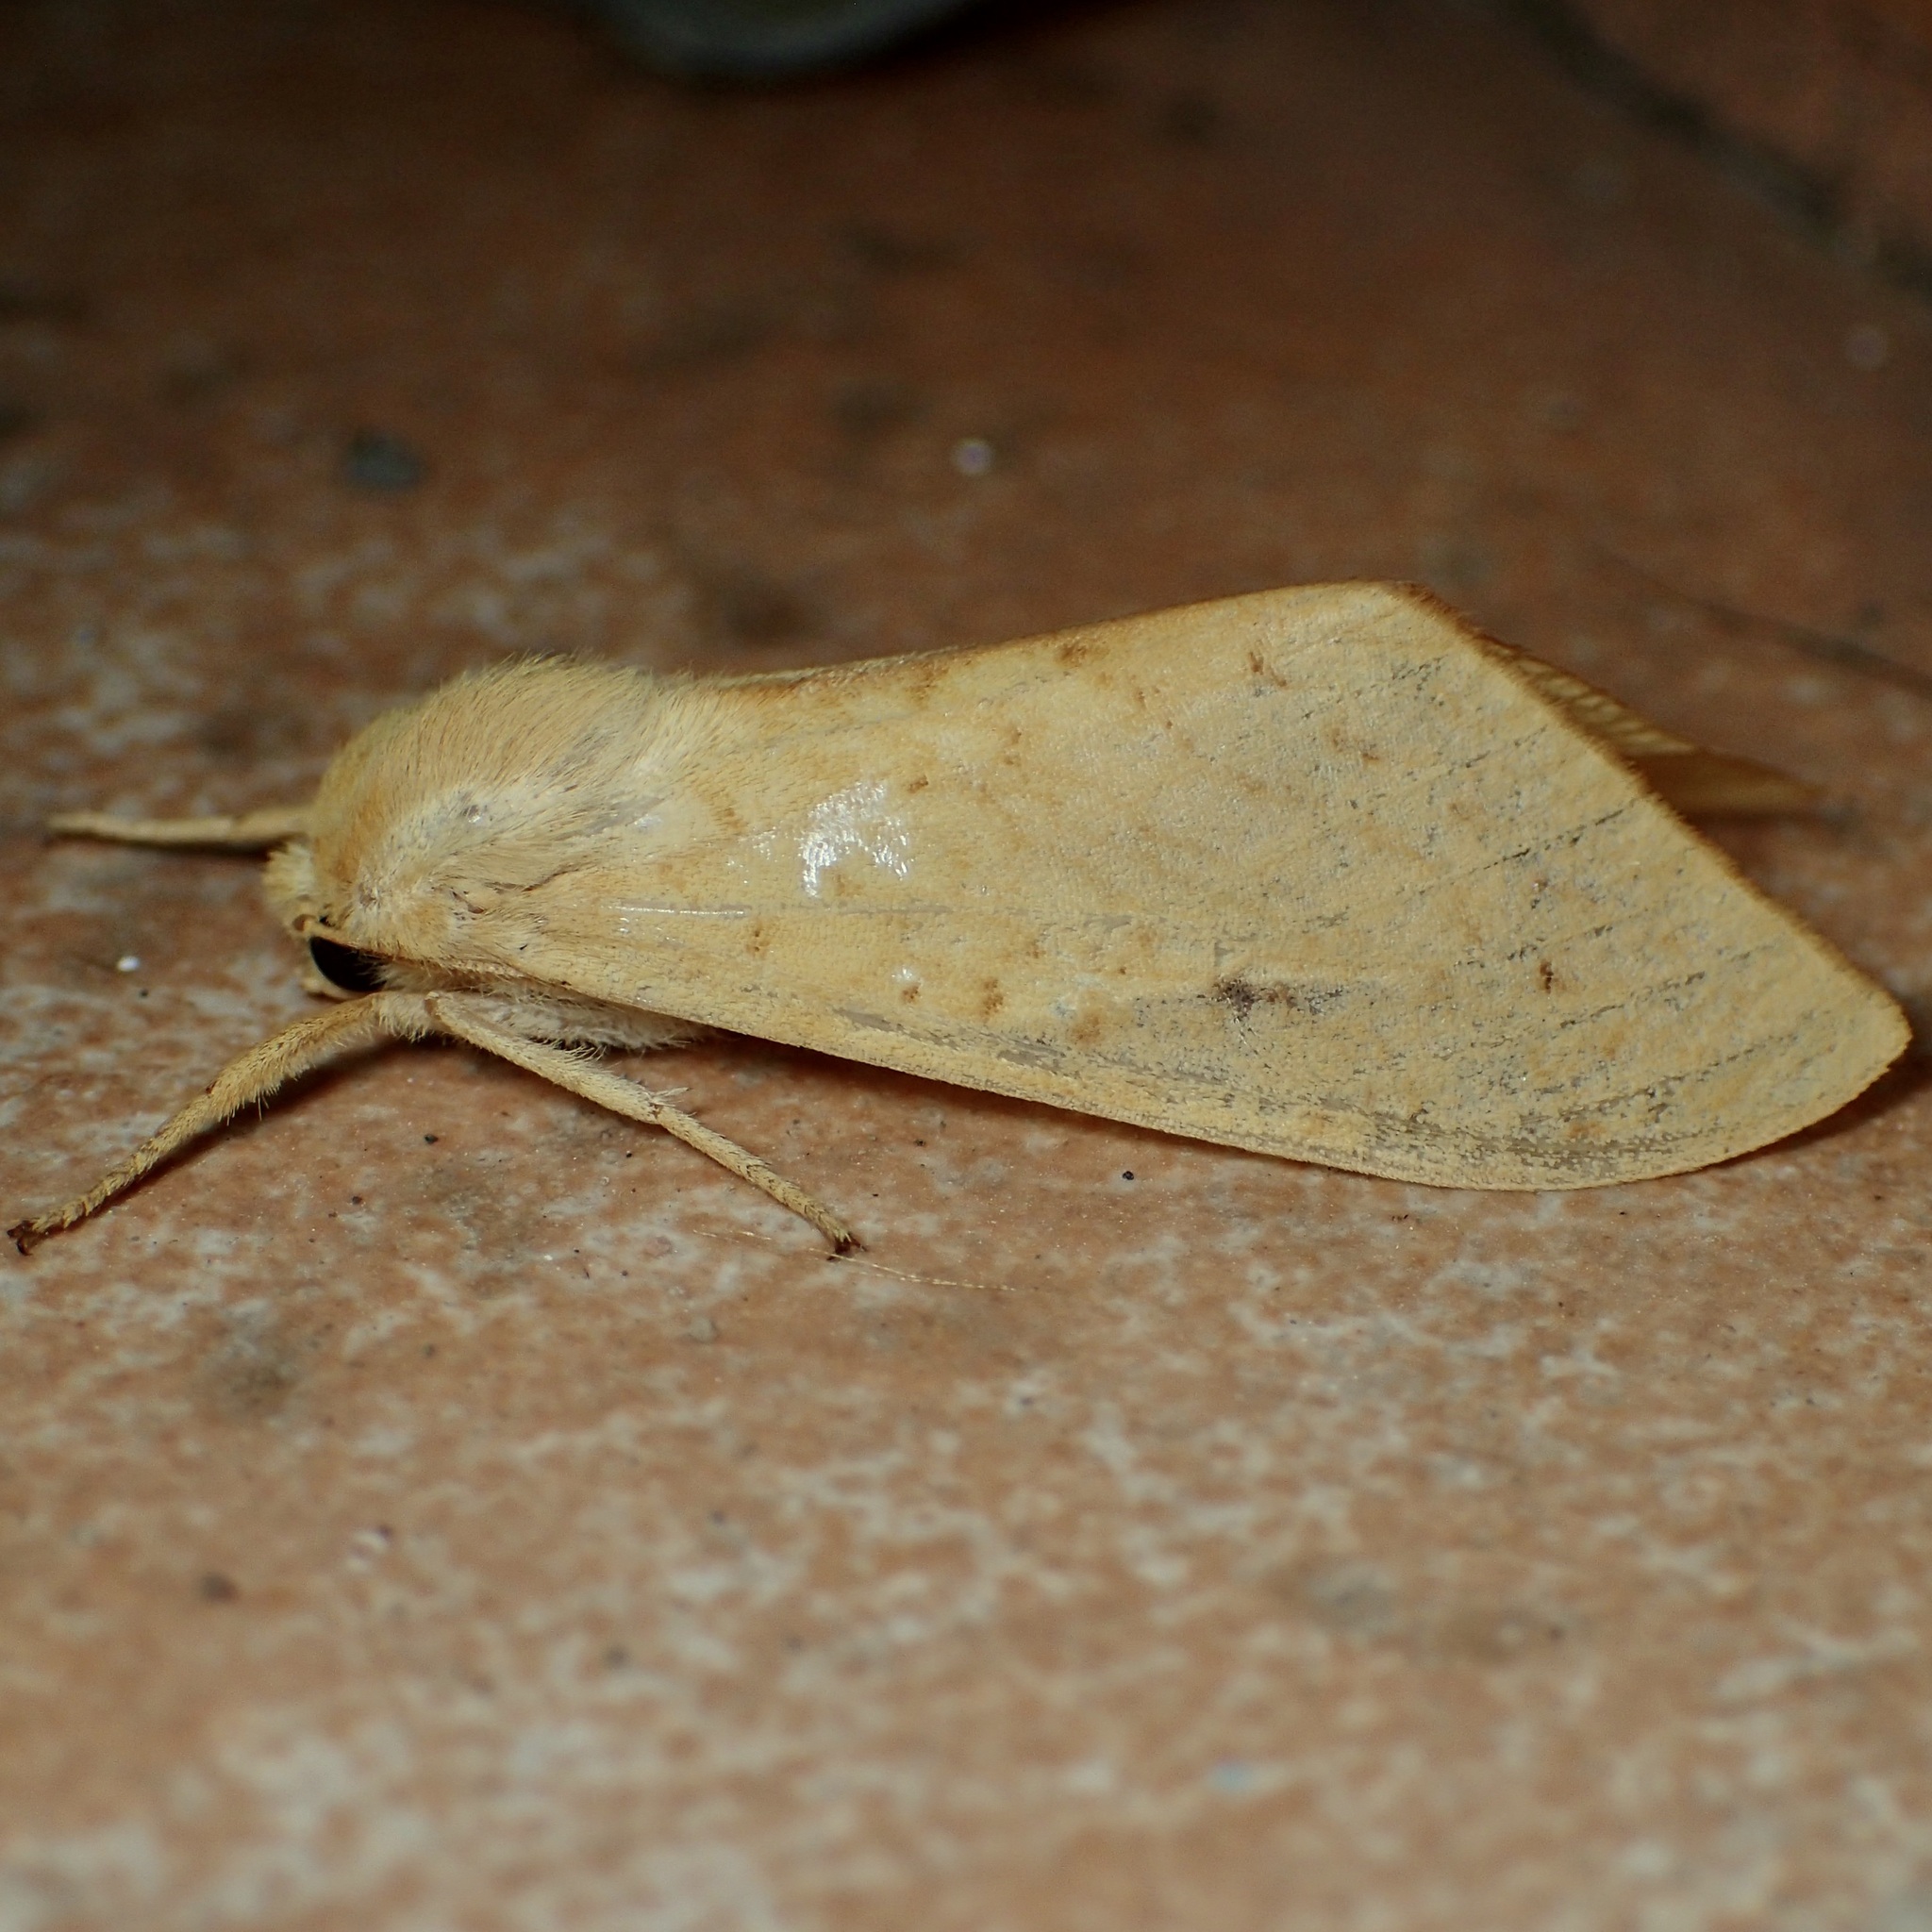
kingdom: Animalia
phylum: Arthropoda
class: Insecta
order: Lepidoptera
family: Erebidae
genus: Lophocampa
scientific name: Lophocampa pura
